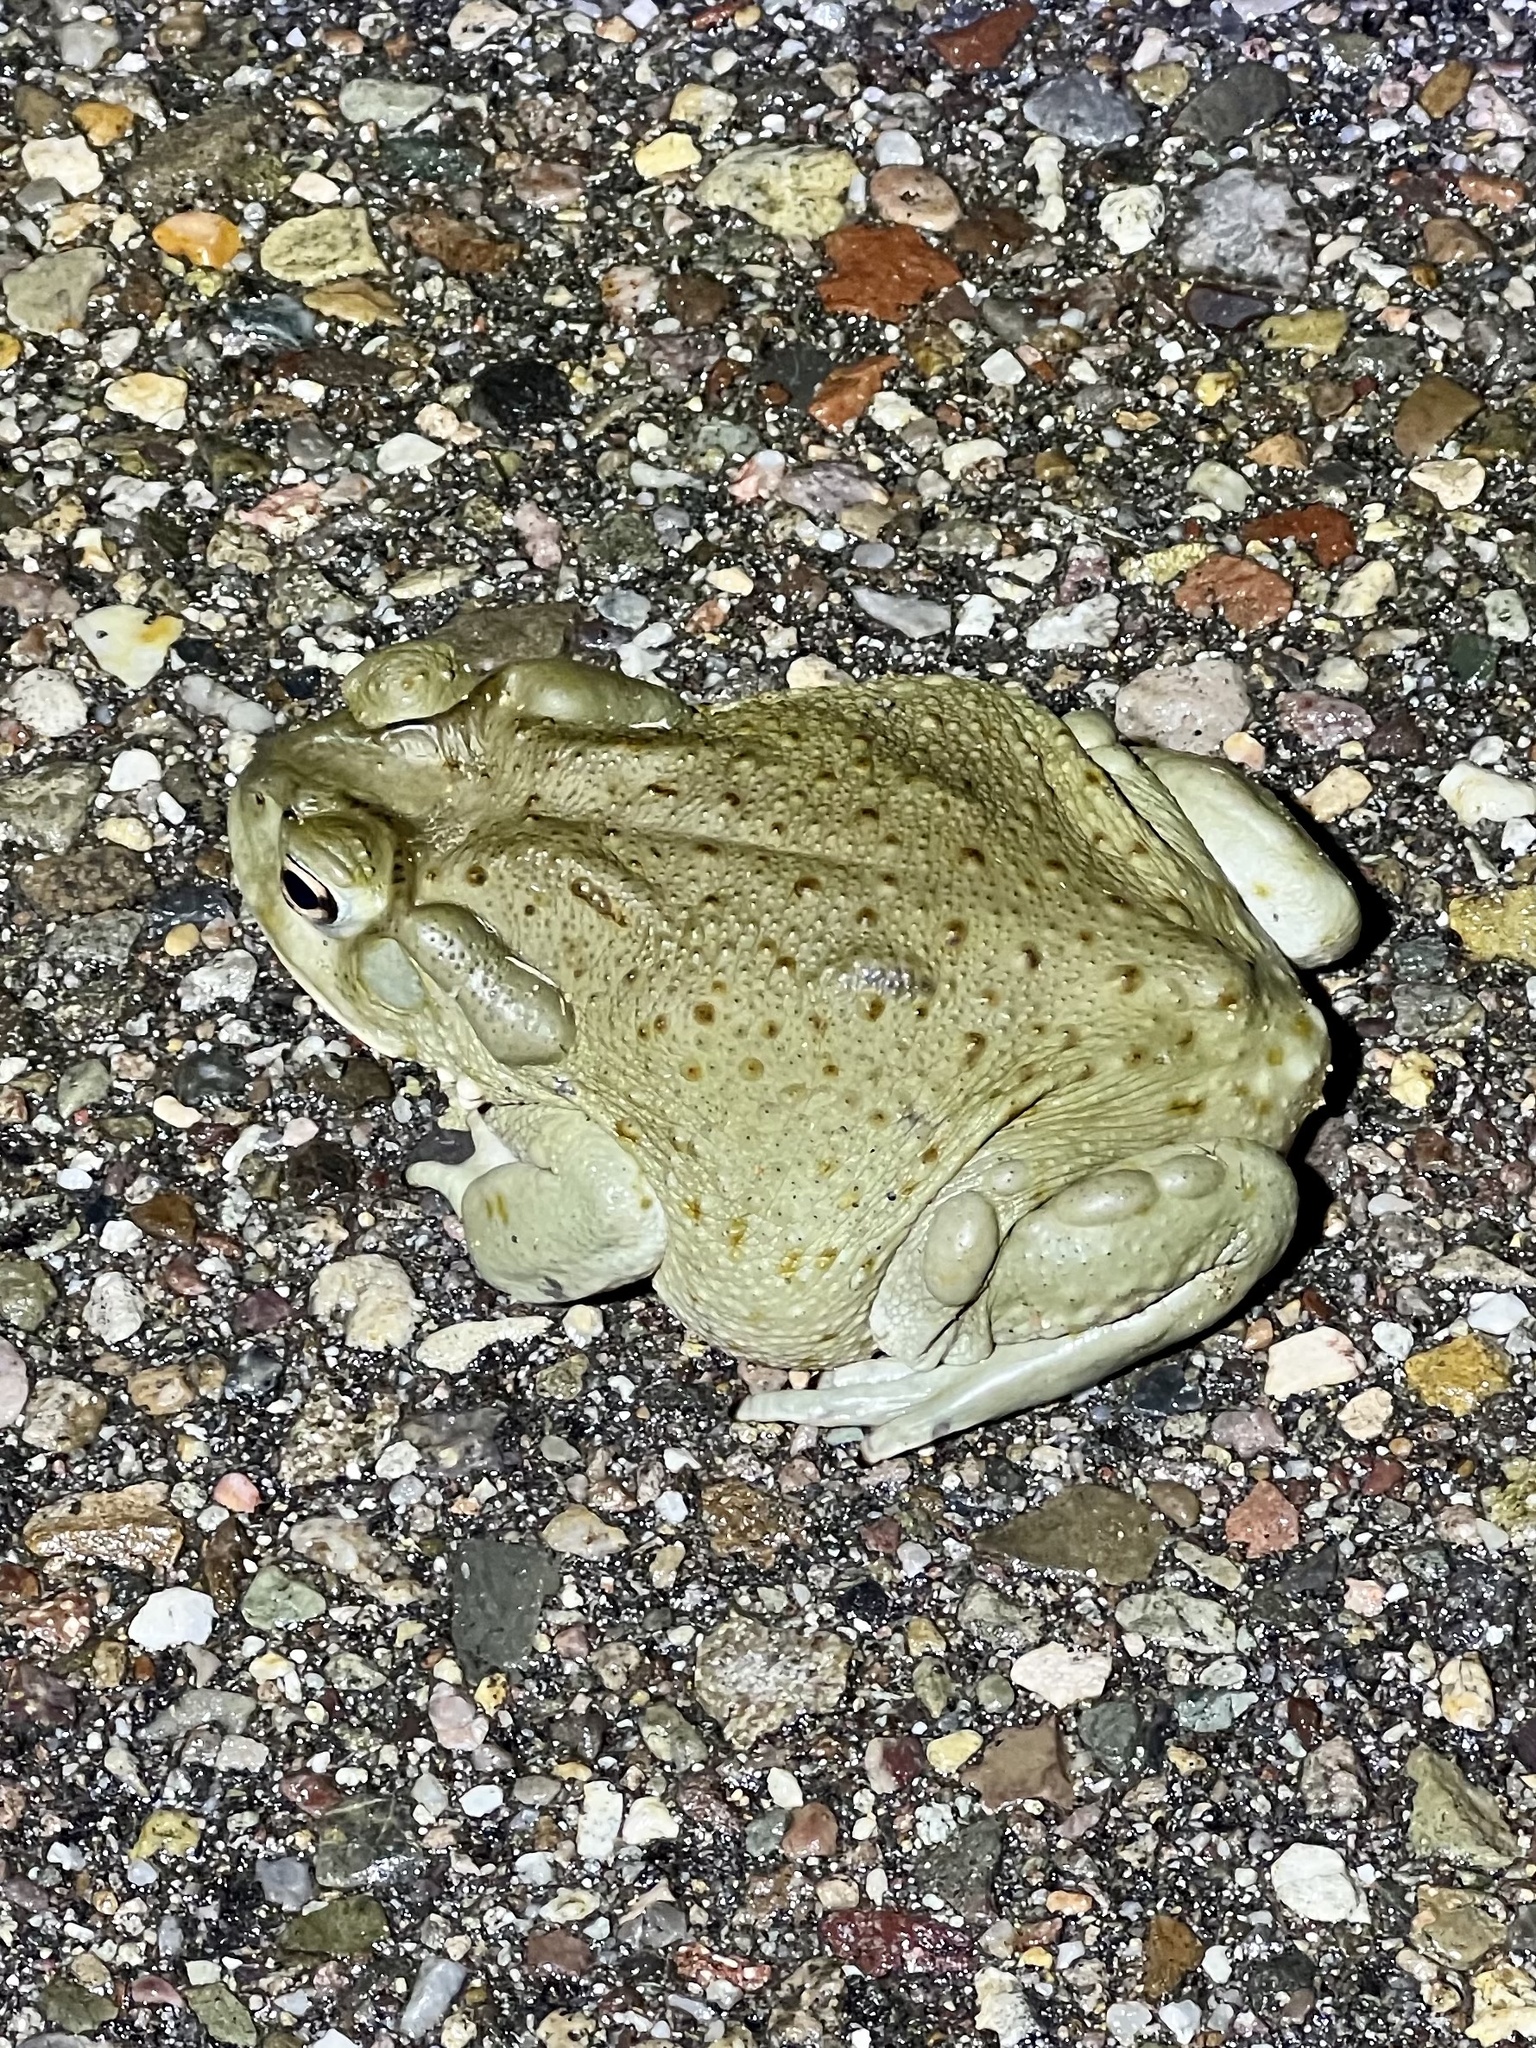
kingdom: Animalia
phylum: Chordata
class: Amphibia
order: Anura
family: Bufonidae
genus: Incilius
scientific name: Incilius alvarius
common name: Sonoran desert toad
